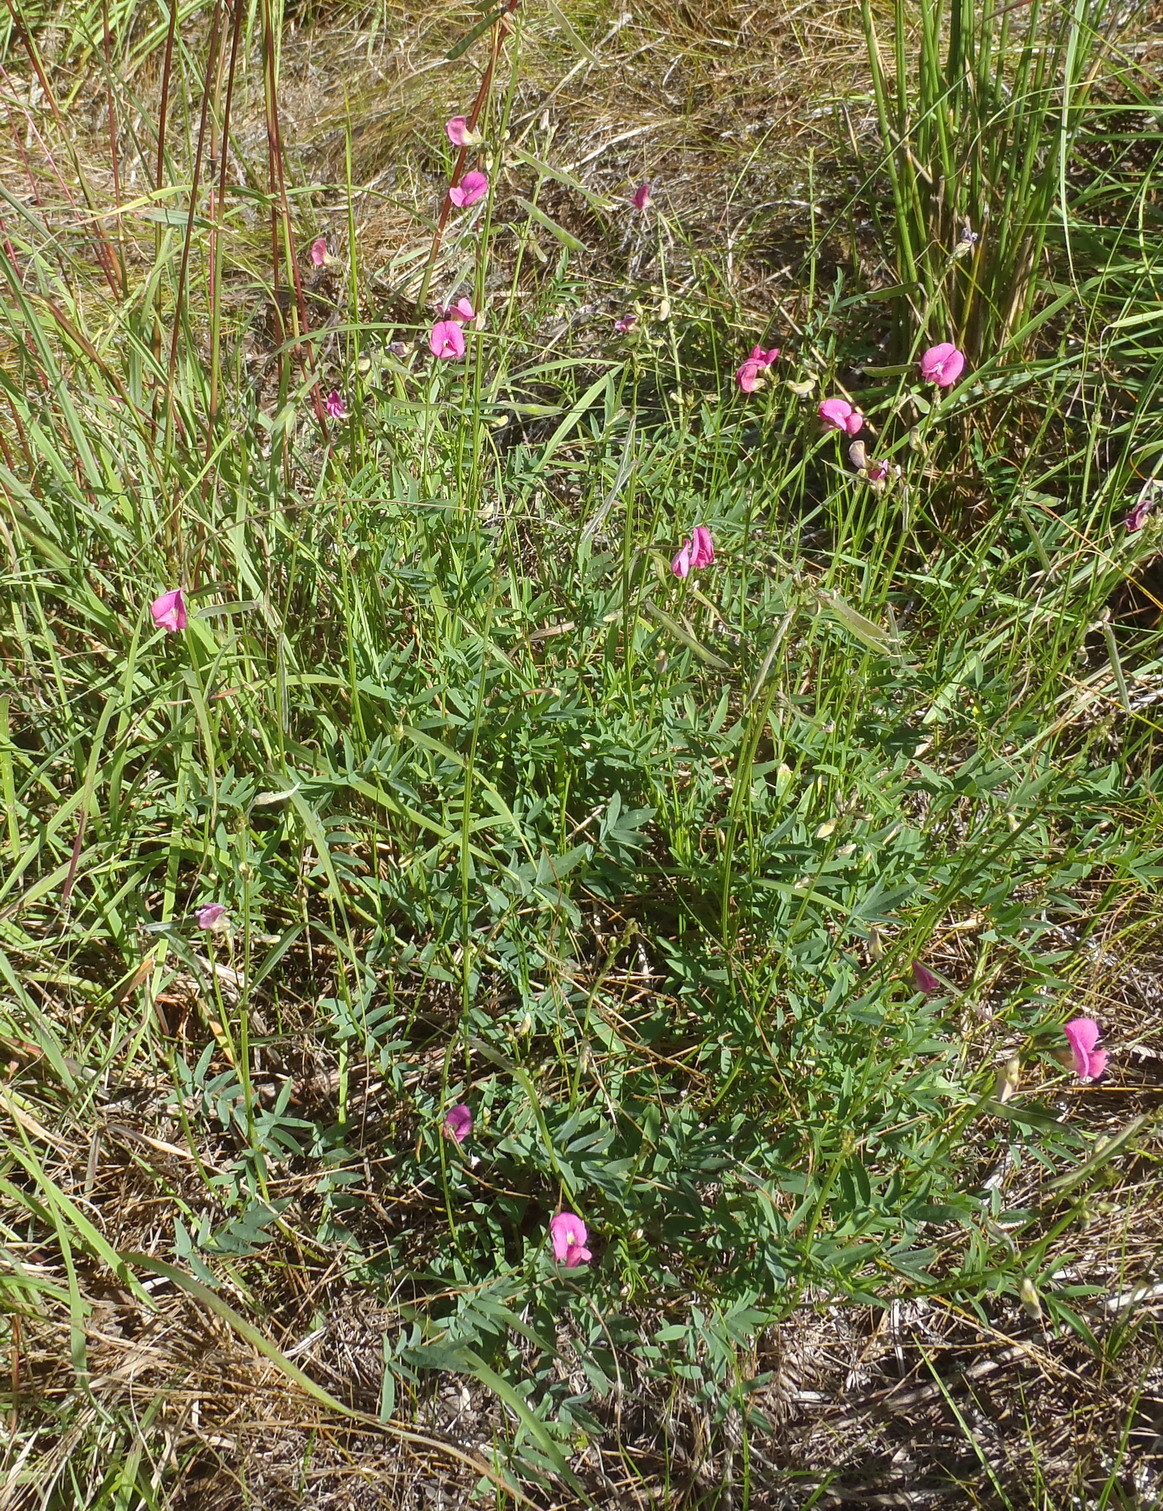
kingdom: Plantae
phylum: Tracheophyta
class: Magnoliopsida
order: Fabales
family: Fabaceae
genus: Tephrosia
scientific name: Tephrosia capensis
